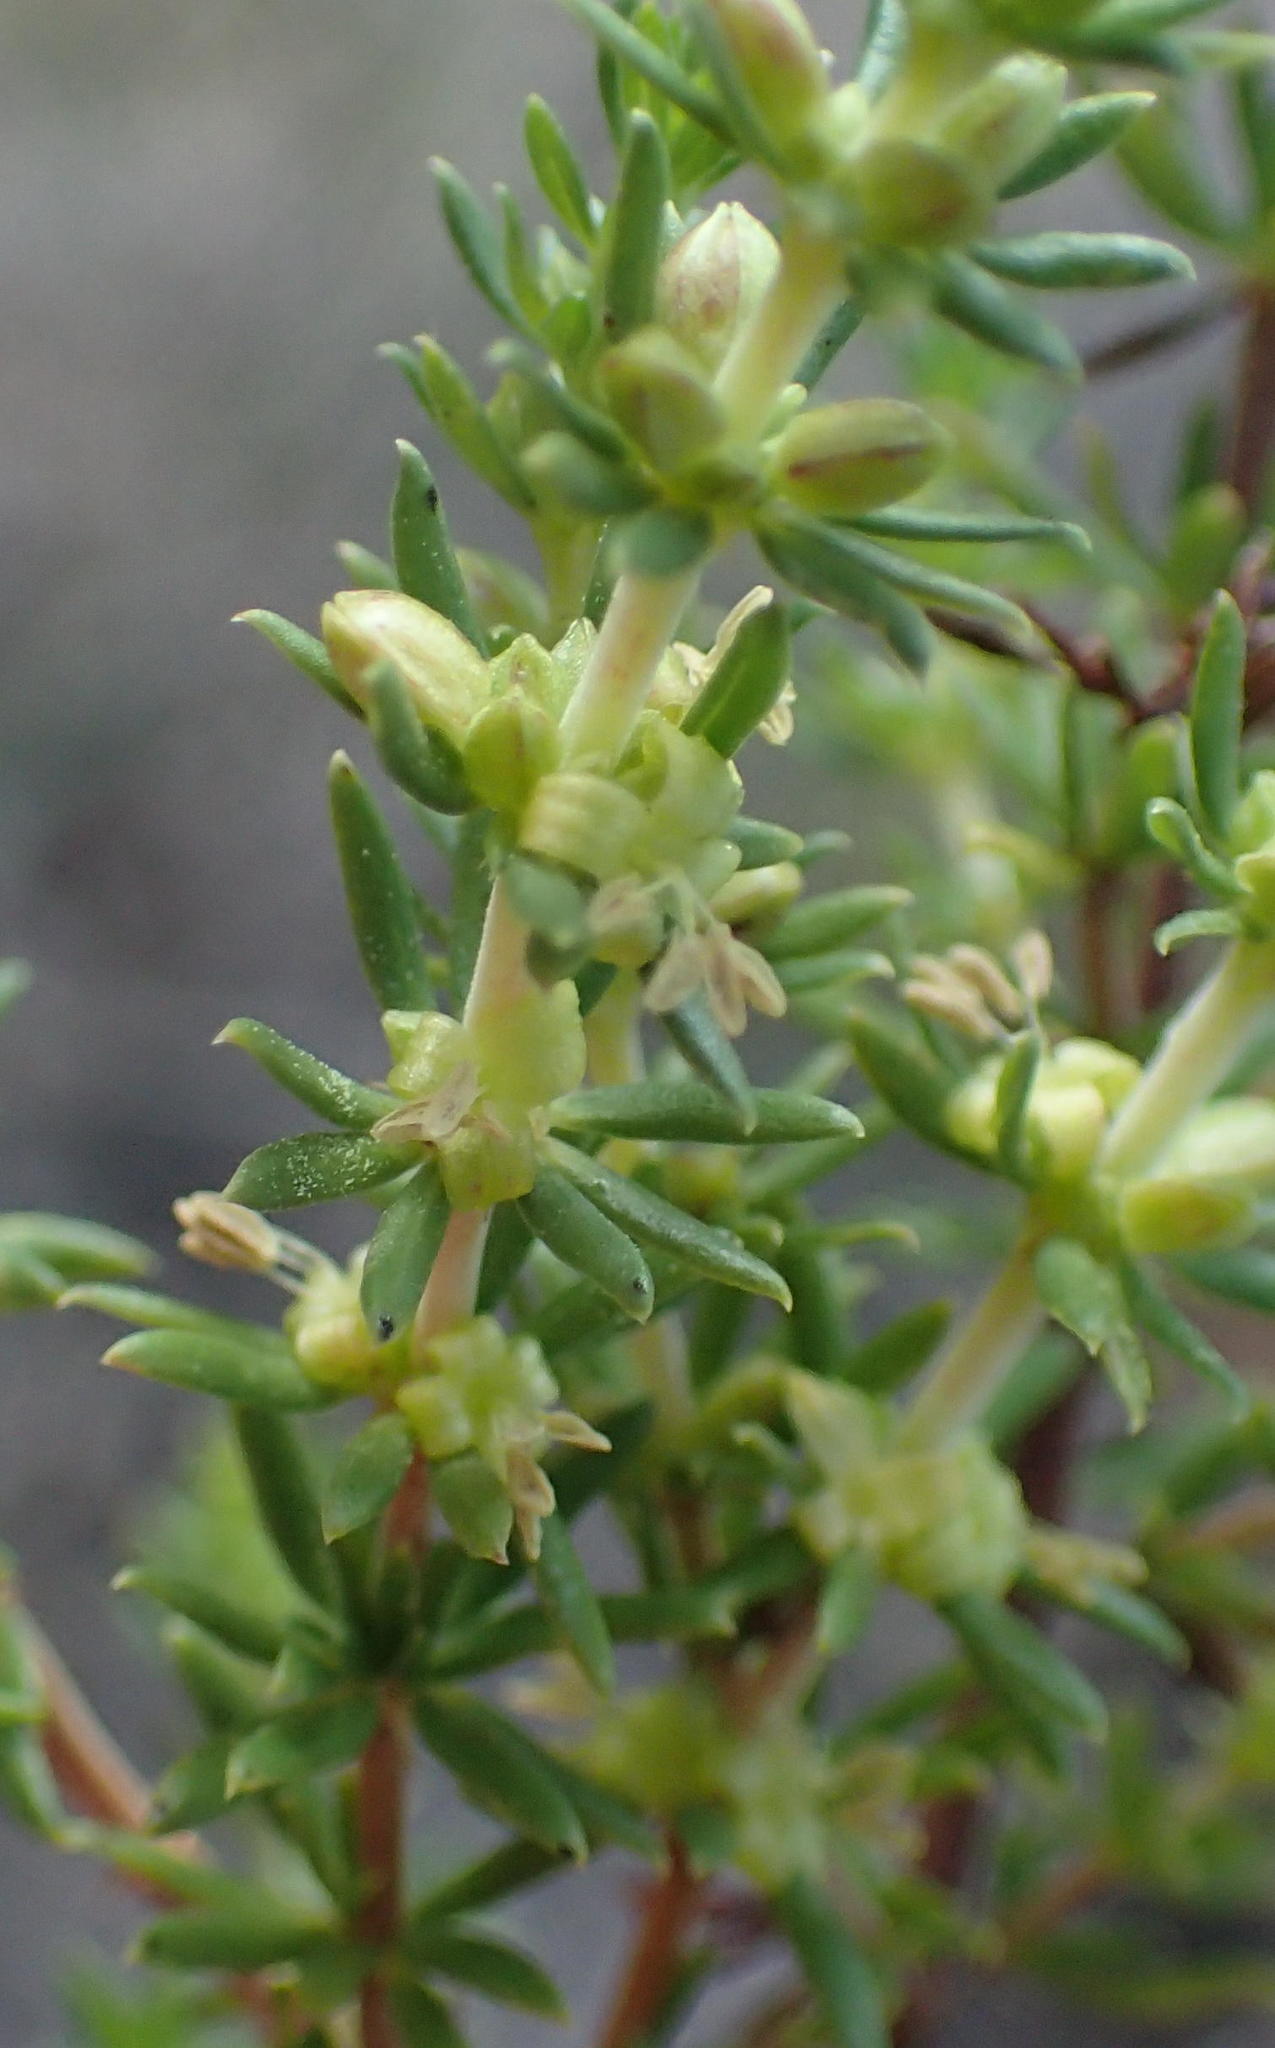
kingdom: Plantae
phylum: Tracheophyta
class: Magnoliopsida
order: Gentianales
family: Rubiaceae
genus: Anthospermum
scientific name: Anthospermum aethiopicum
